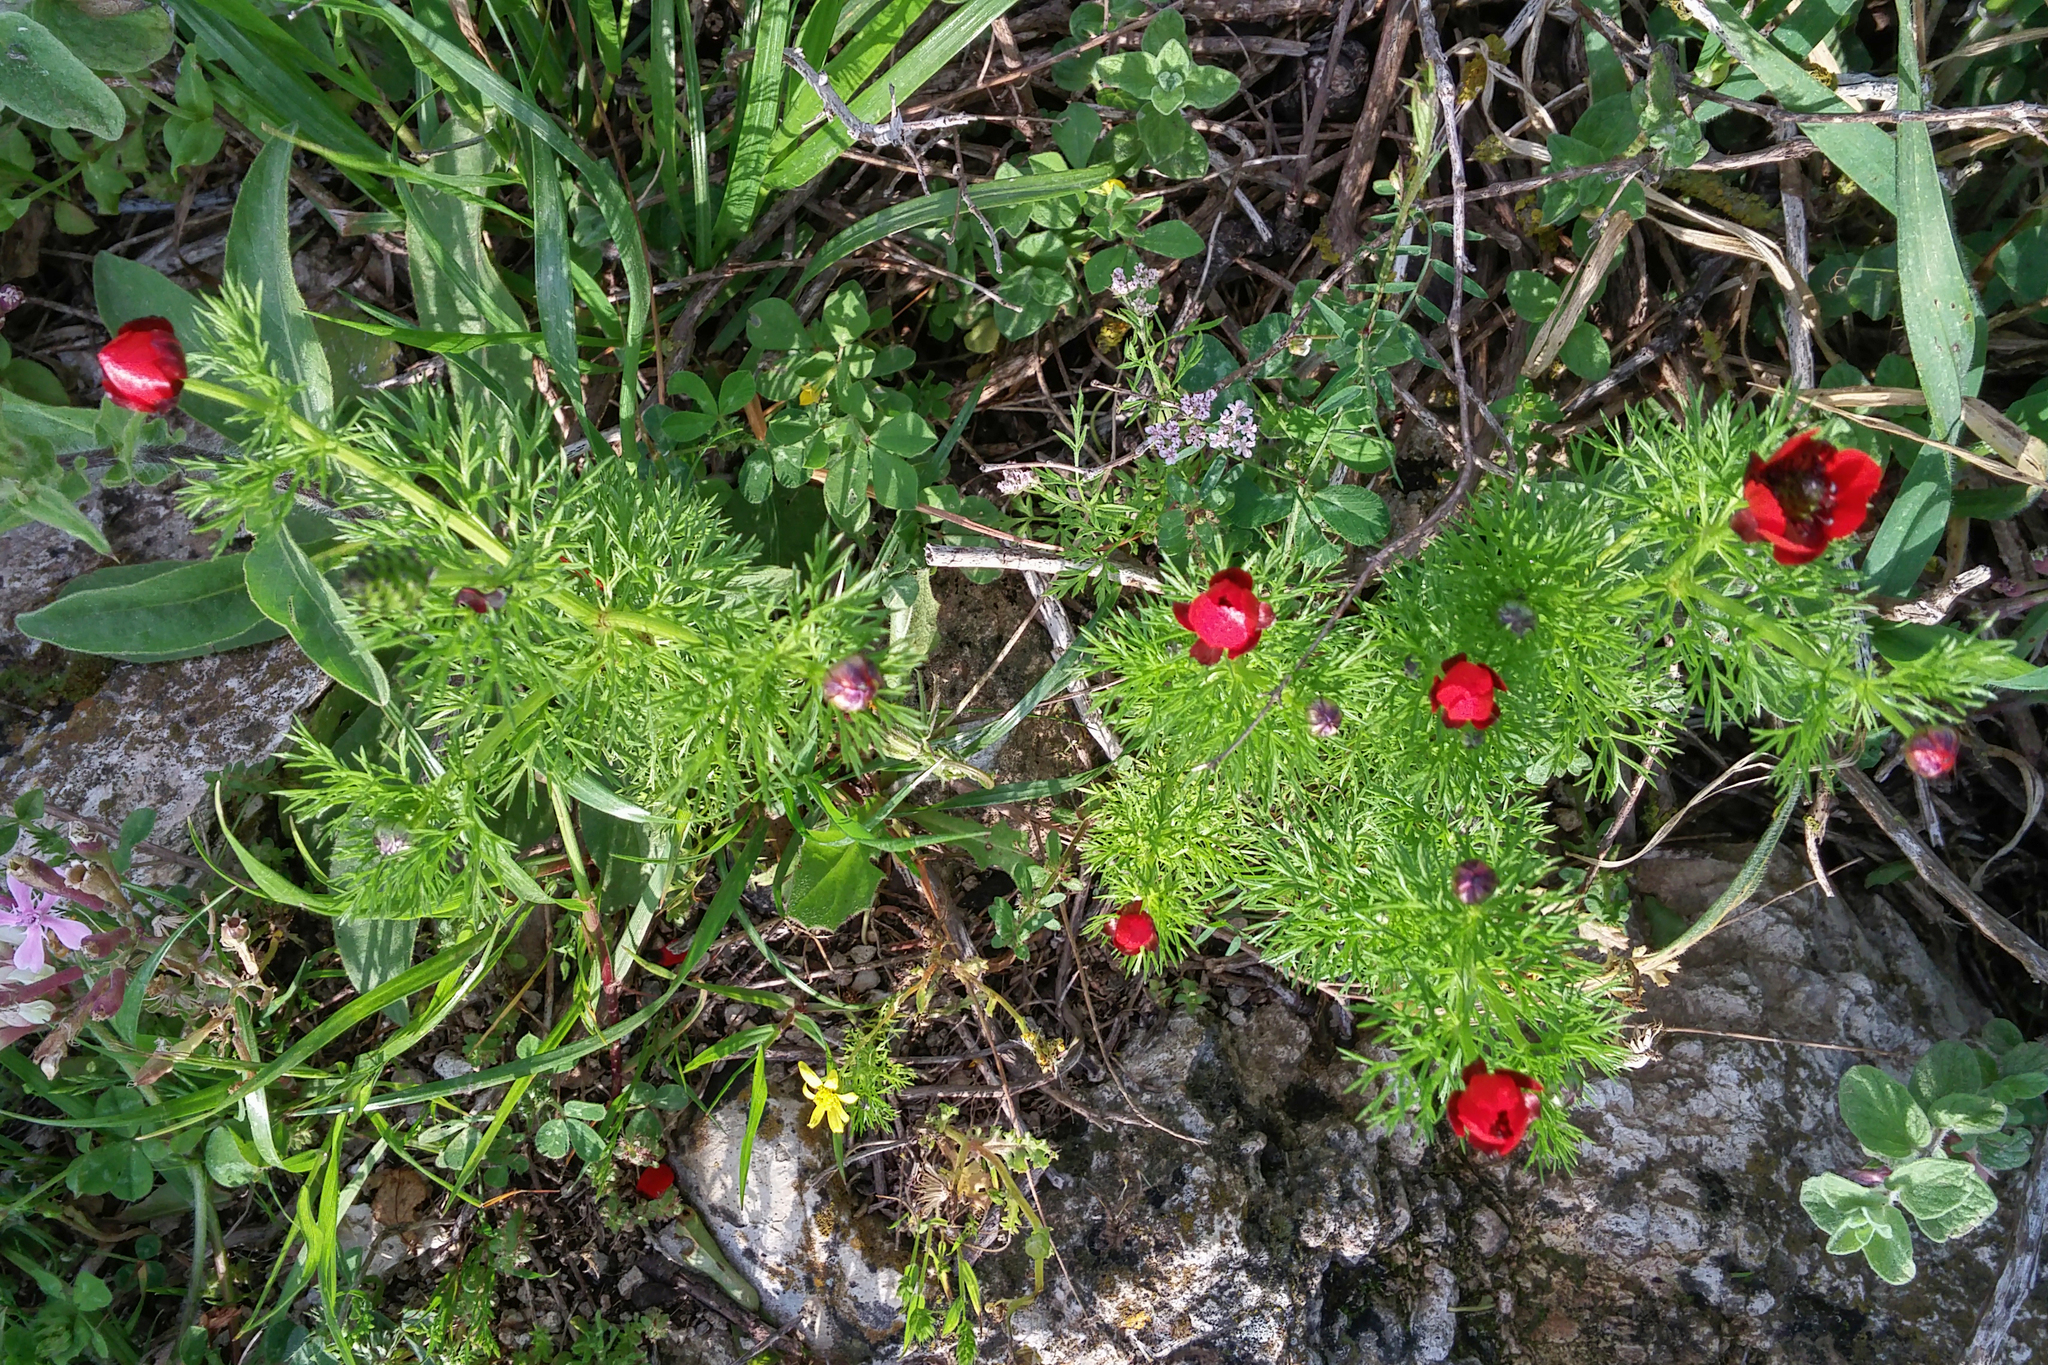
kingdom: Plantae
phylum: Tracheophyta
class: Magnoliopsida
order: Ranunculales
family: Ranunculaceae
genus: Adonis
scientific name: Adonis microcarpa
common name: Pheasant's-eye
